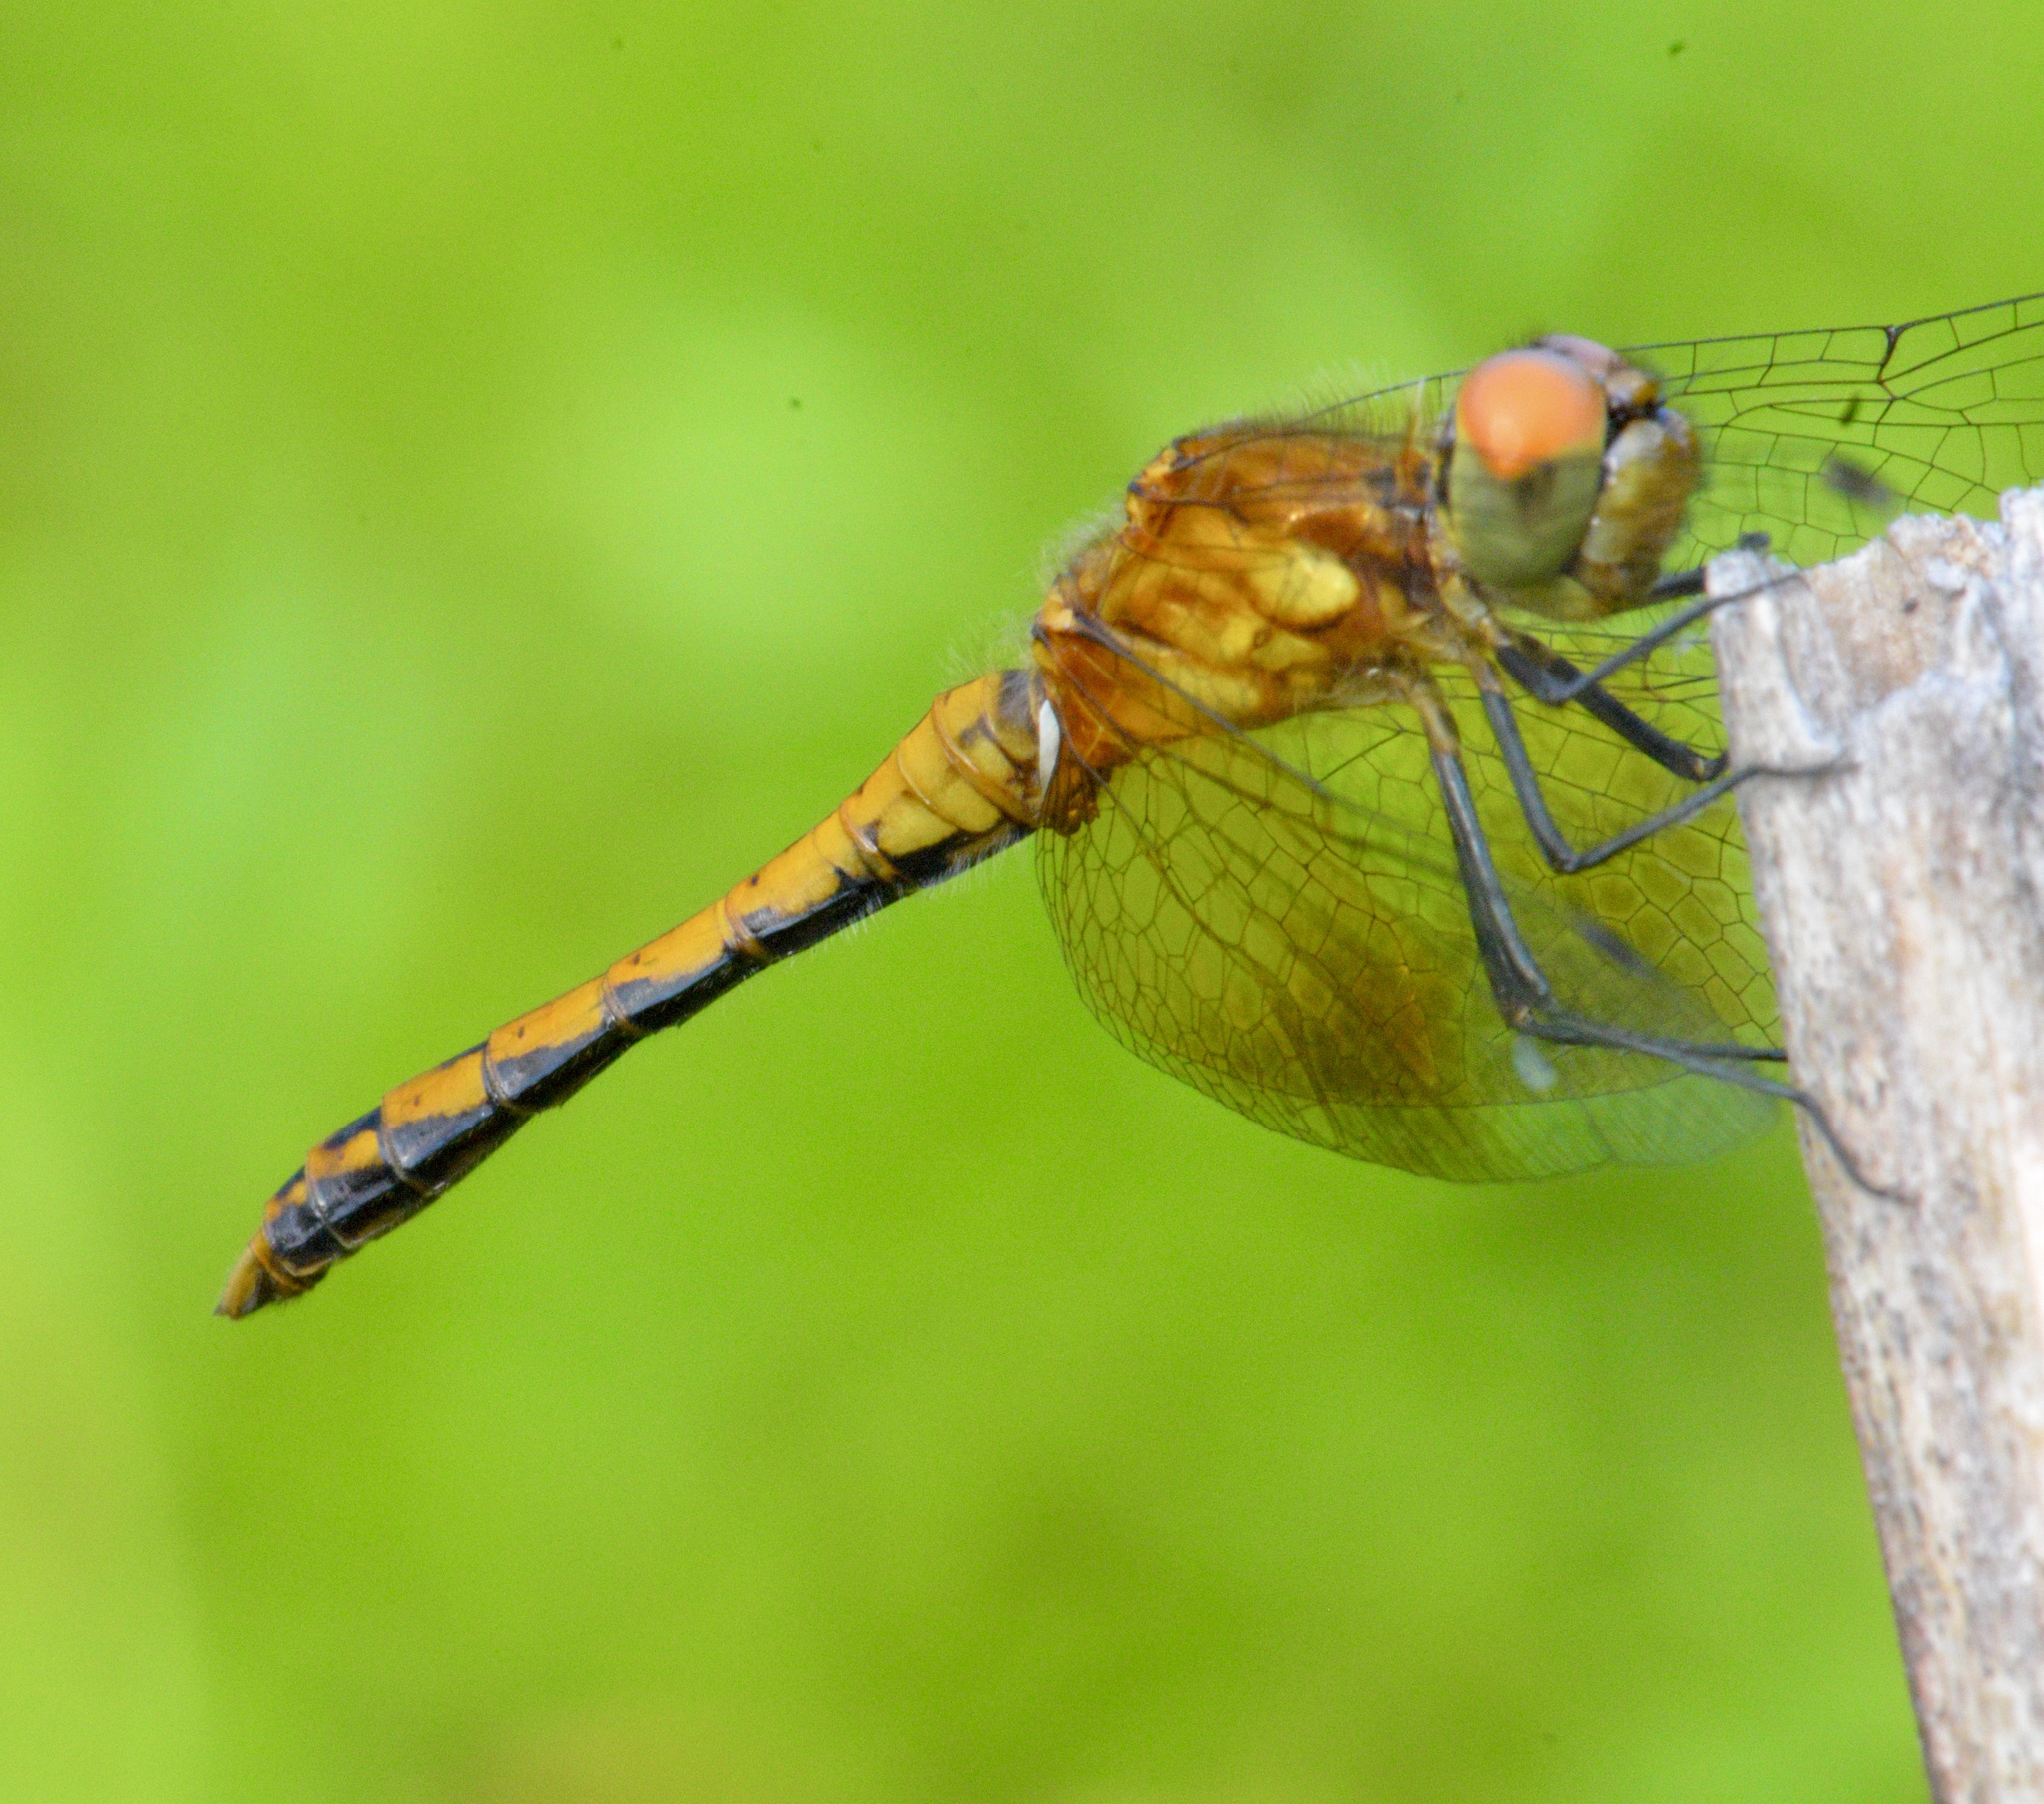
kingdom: Animalia
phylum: Arthropoda
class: Insecta
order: Odonata
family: Libellulidae
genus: Sympetrum
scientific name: Sympetrum semicinctum
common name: Band-winged meadowhawk
